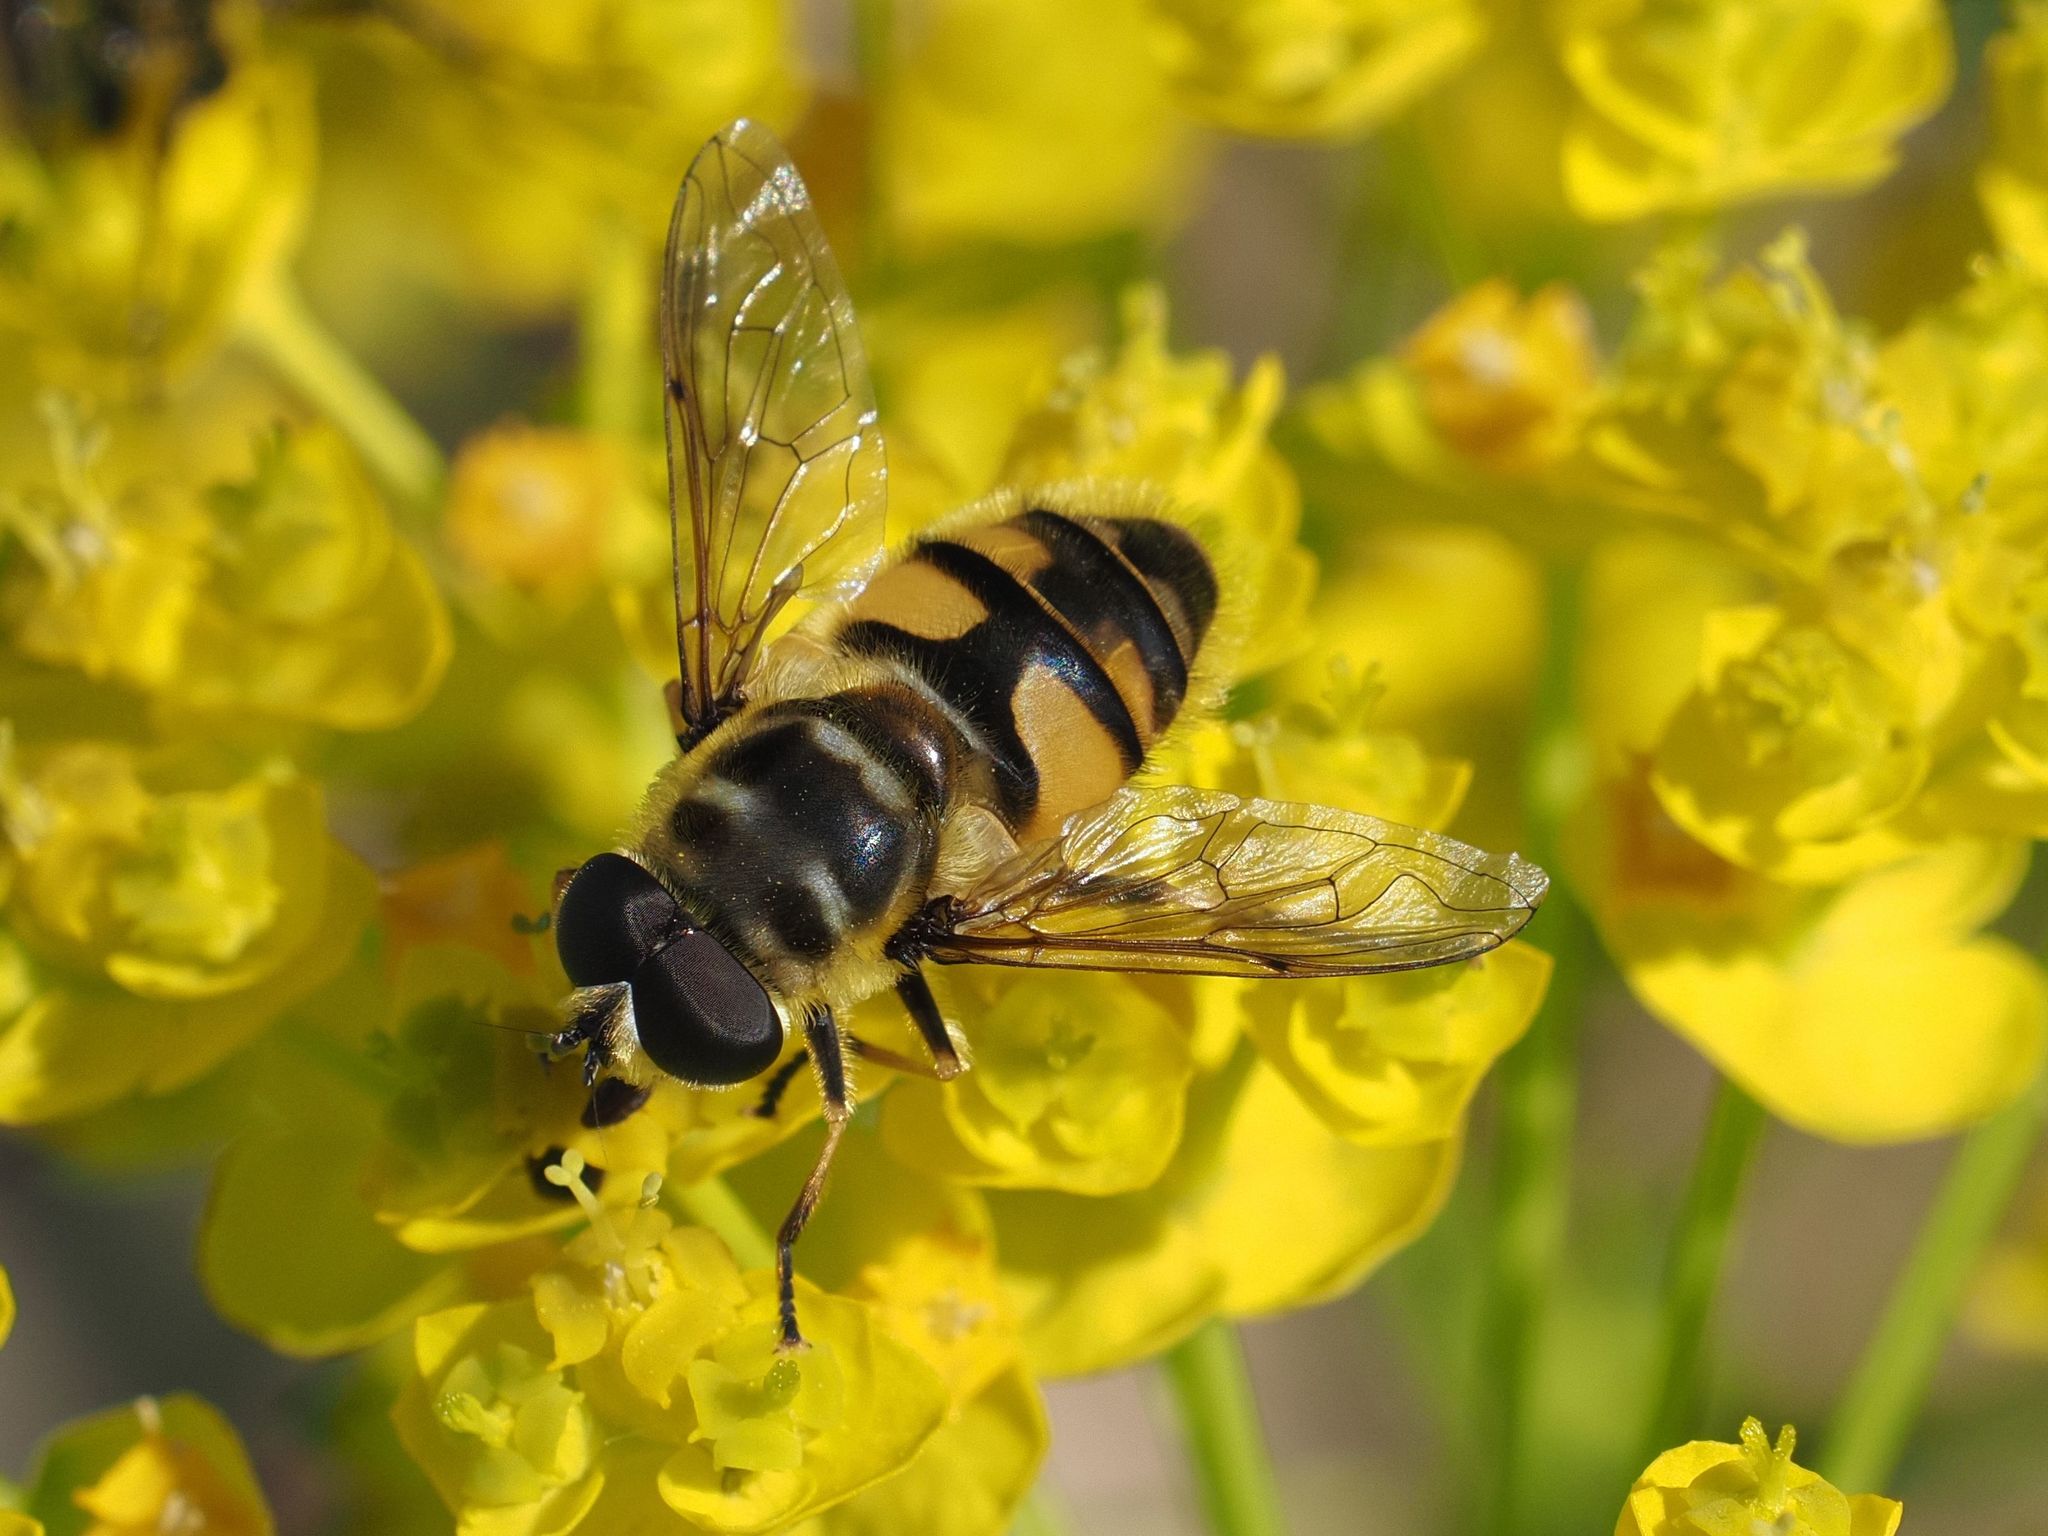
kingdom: Animalia
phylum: Arthropoda
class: Insecta
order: Diptera
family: Syrphidae
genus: Myathropa
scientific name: Myathropa florea
